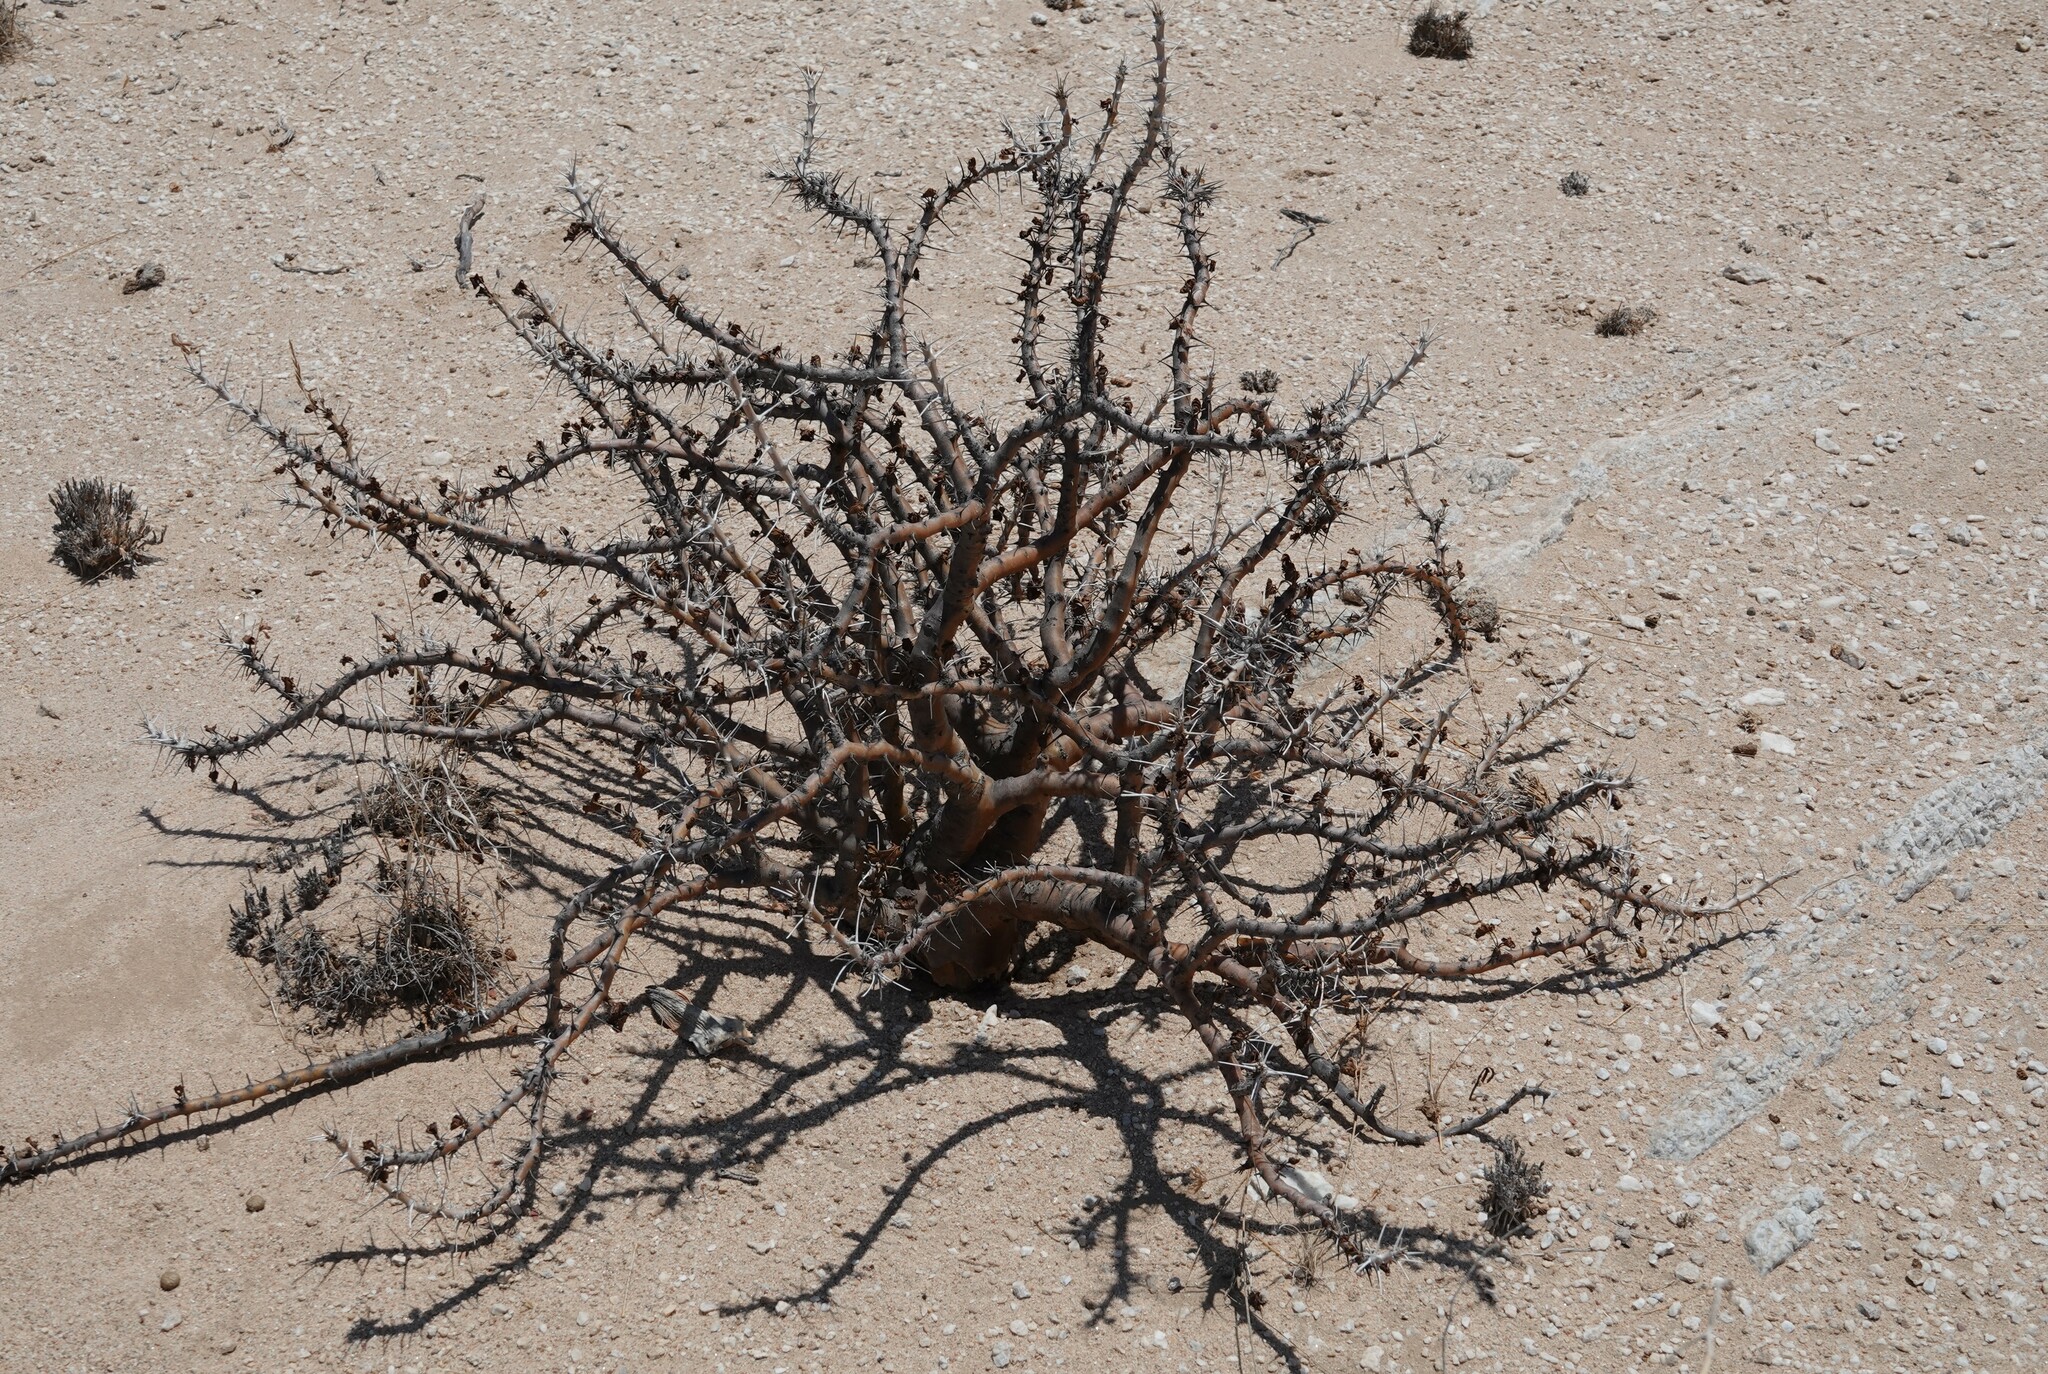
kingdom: Plantae
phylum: Tracheophyta
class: Magnoliopsida
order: Geraniales
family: Geraniaceae
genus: Monsonia
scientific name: Monsonia marlothii
